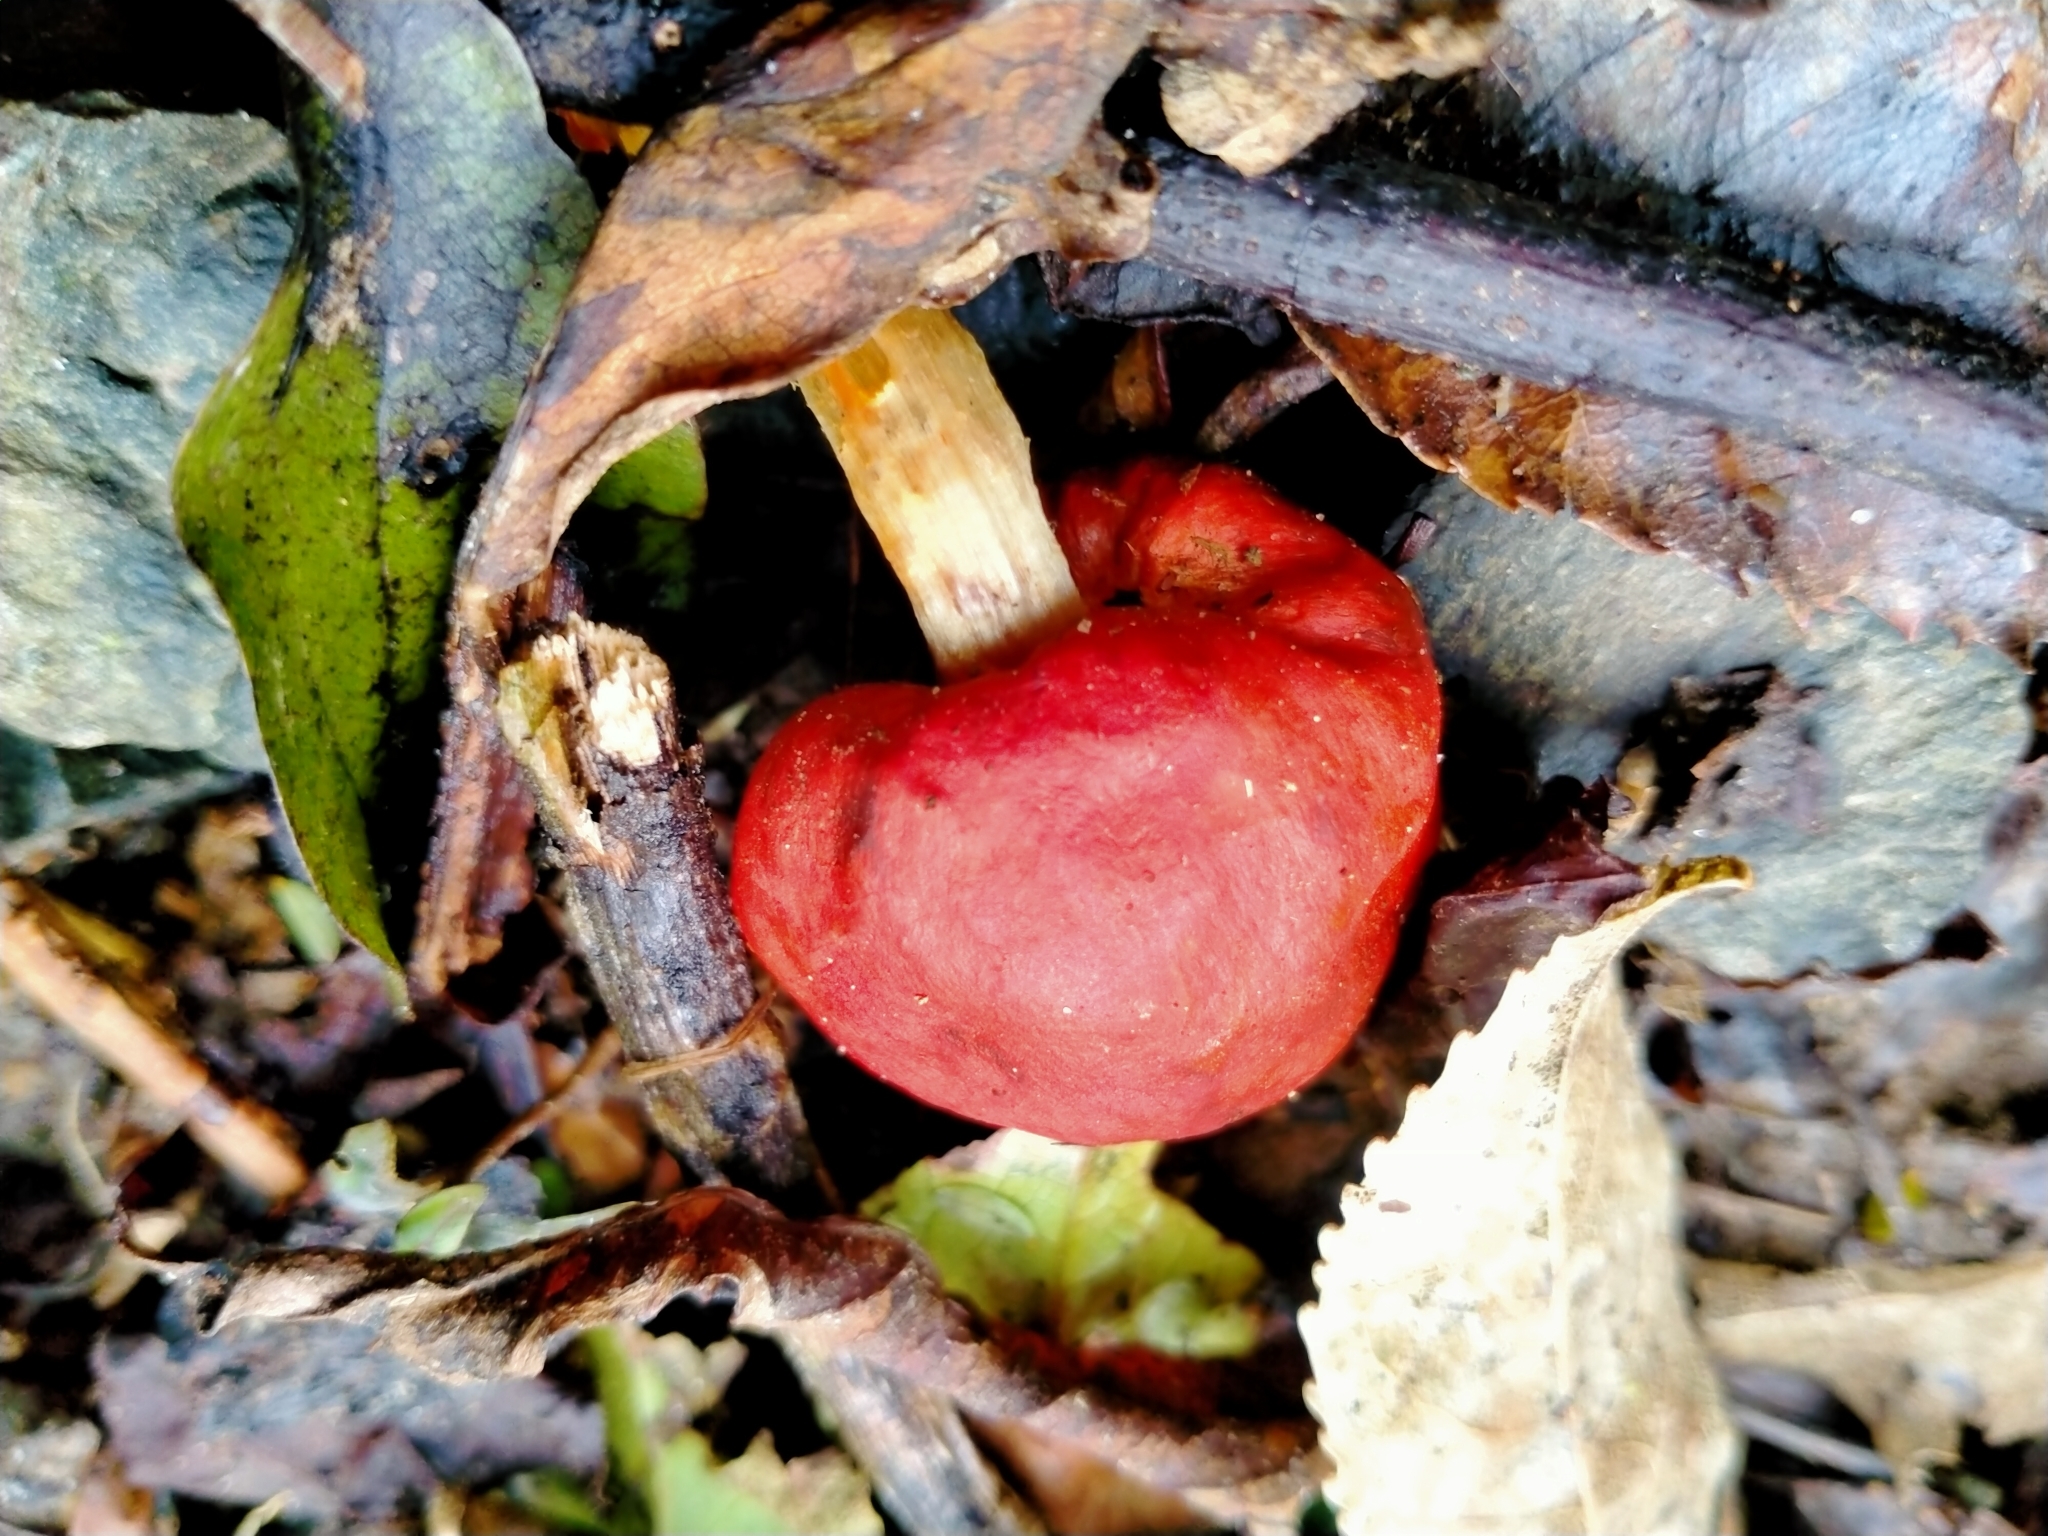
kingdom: Fungi
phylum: Basidiomycota
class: Agaricomycetes
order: Agaricales
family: Strophariaceae
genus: Leratiomyces
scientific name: Leratiomyces erythrocephalus
